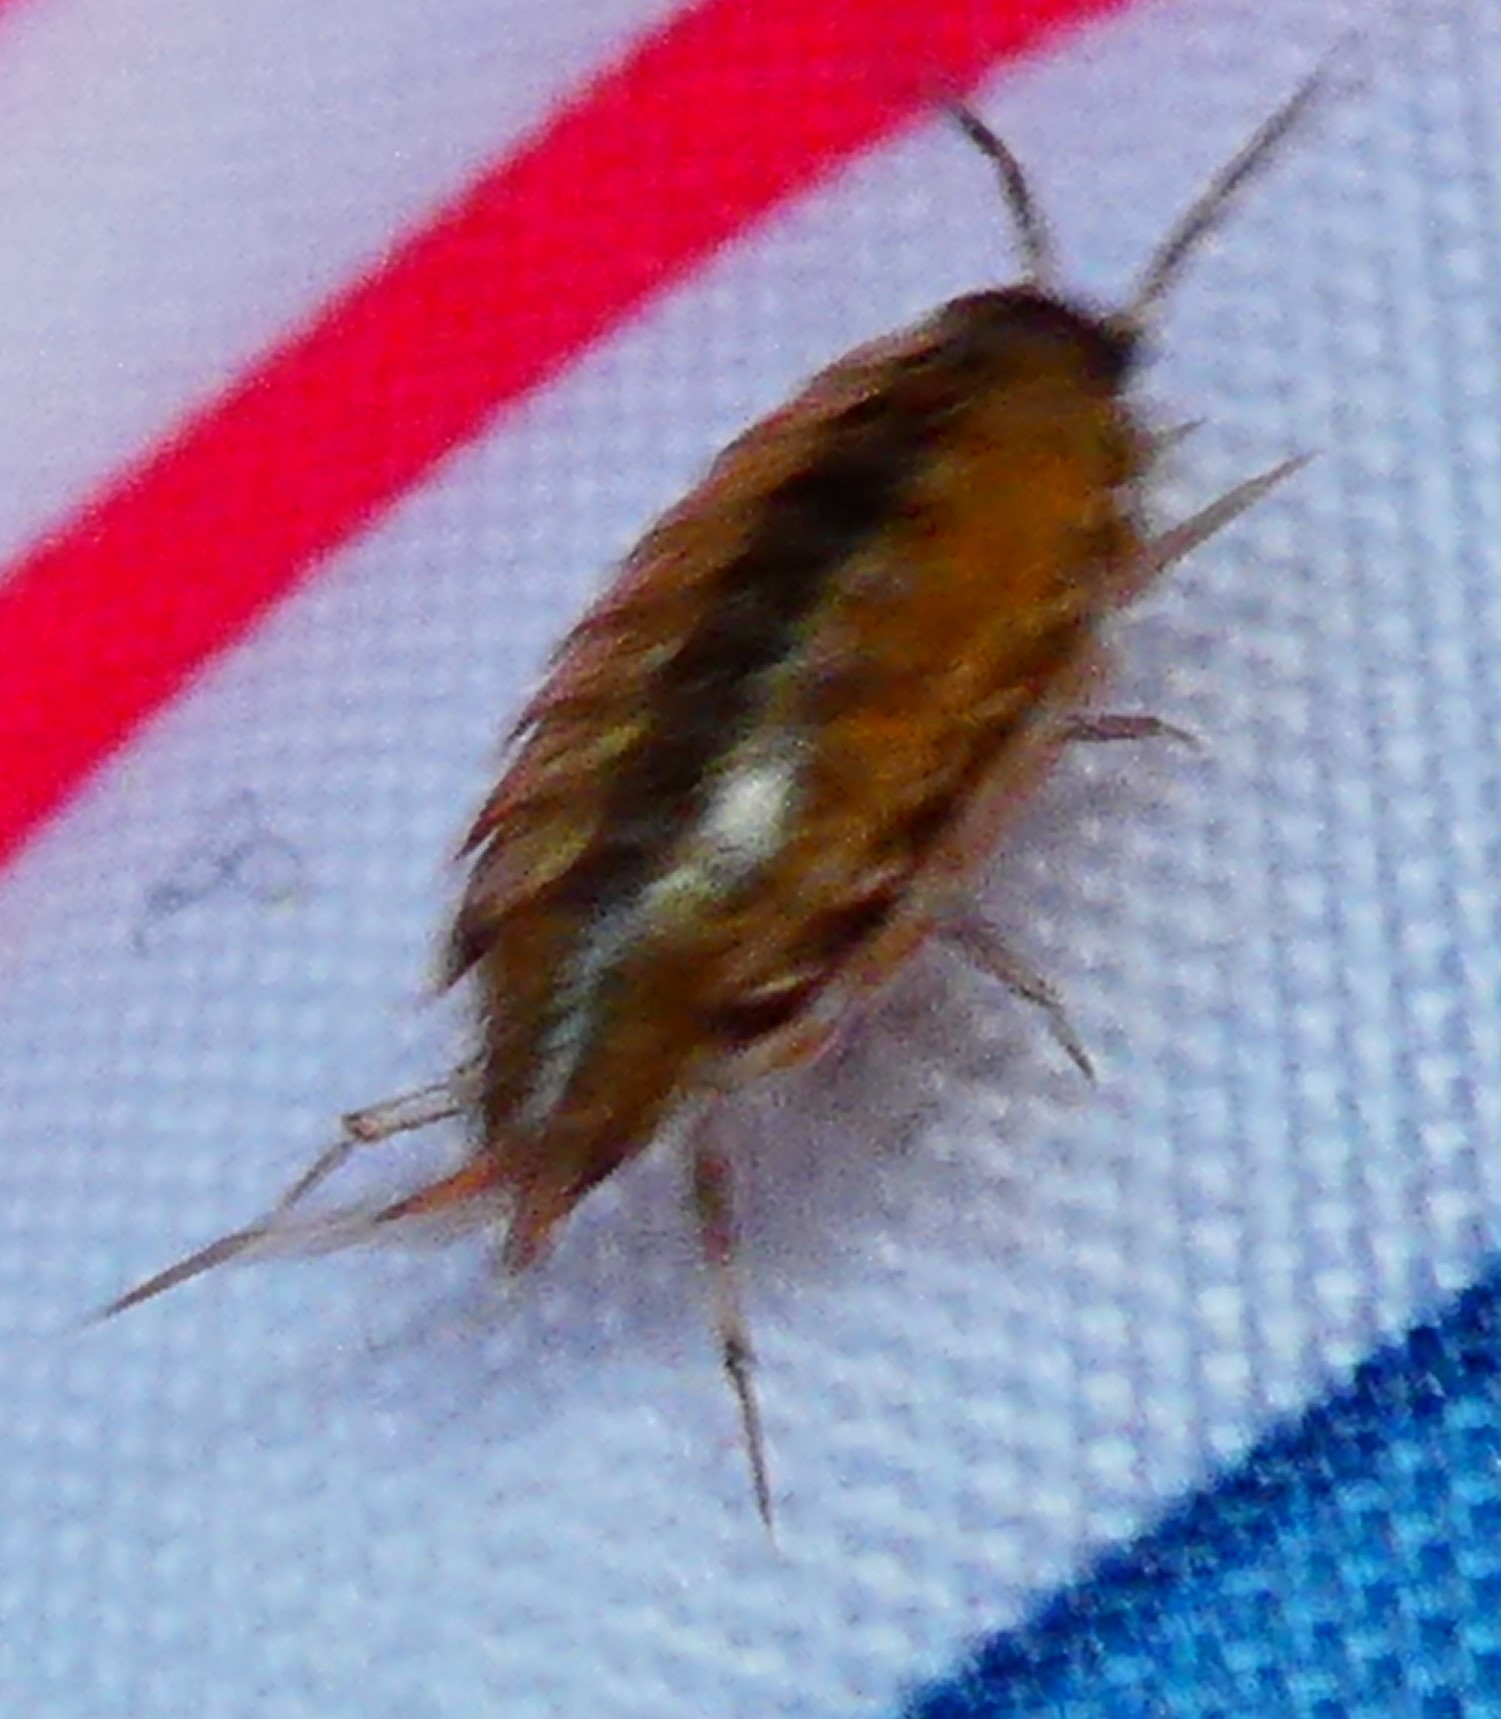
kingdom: Animalia
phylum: Arthropoda
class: Malacostraca
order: Isopoda
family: Philosciidae
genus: Philoscia
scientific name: Philoscia
